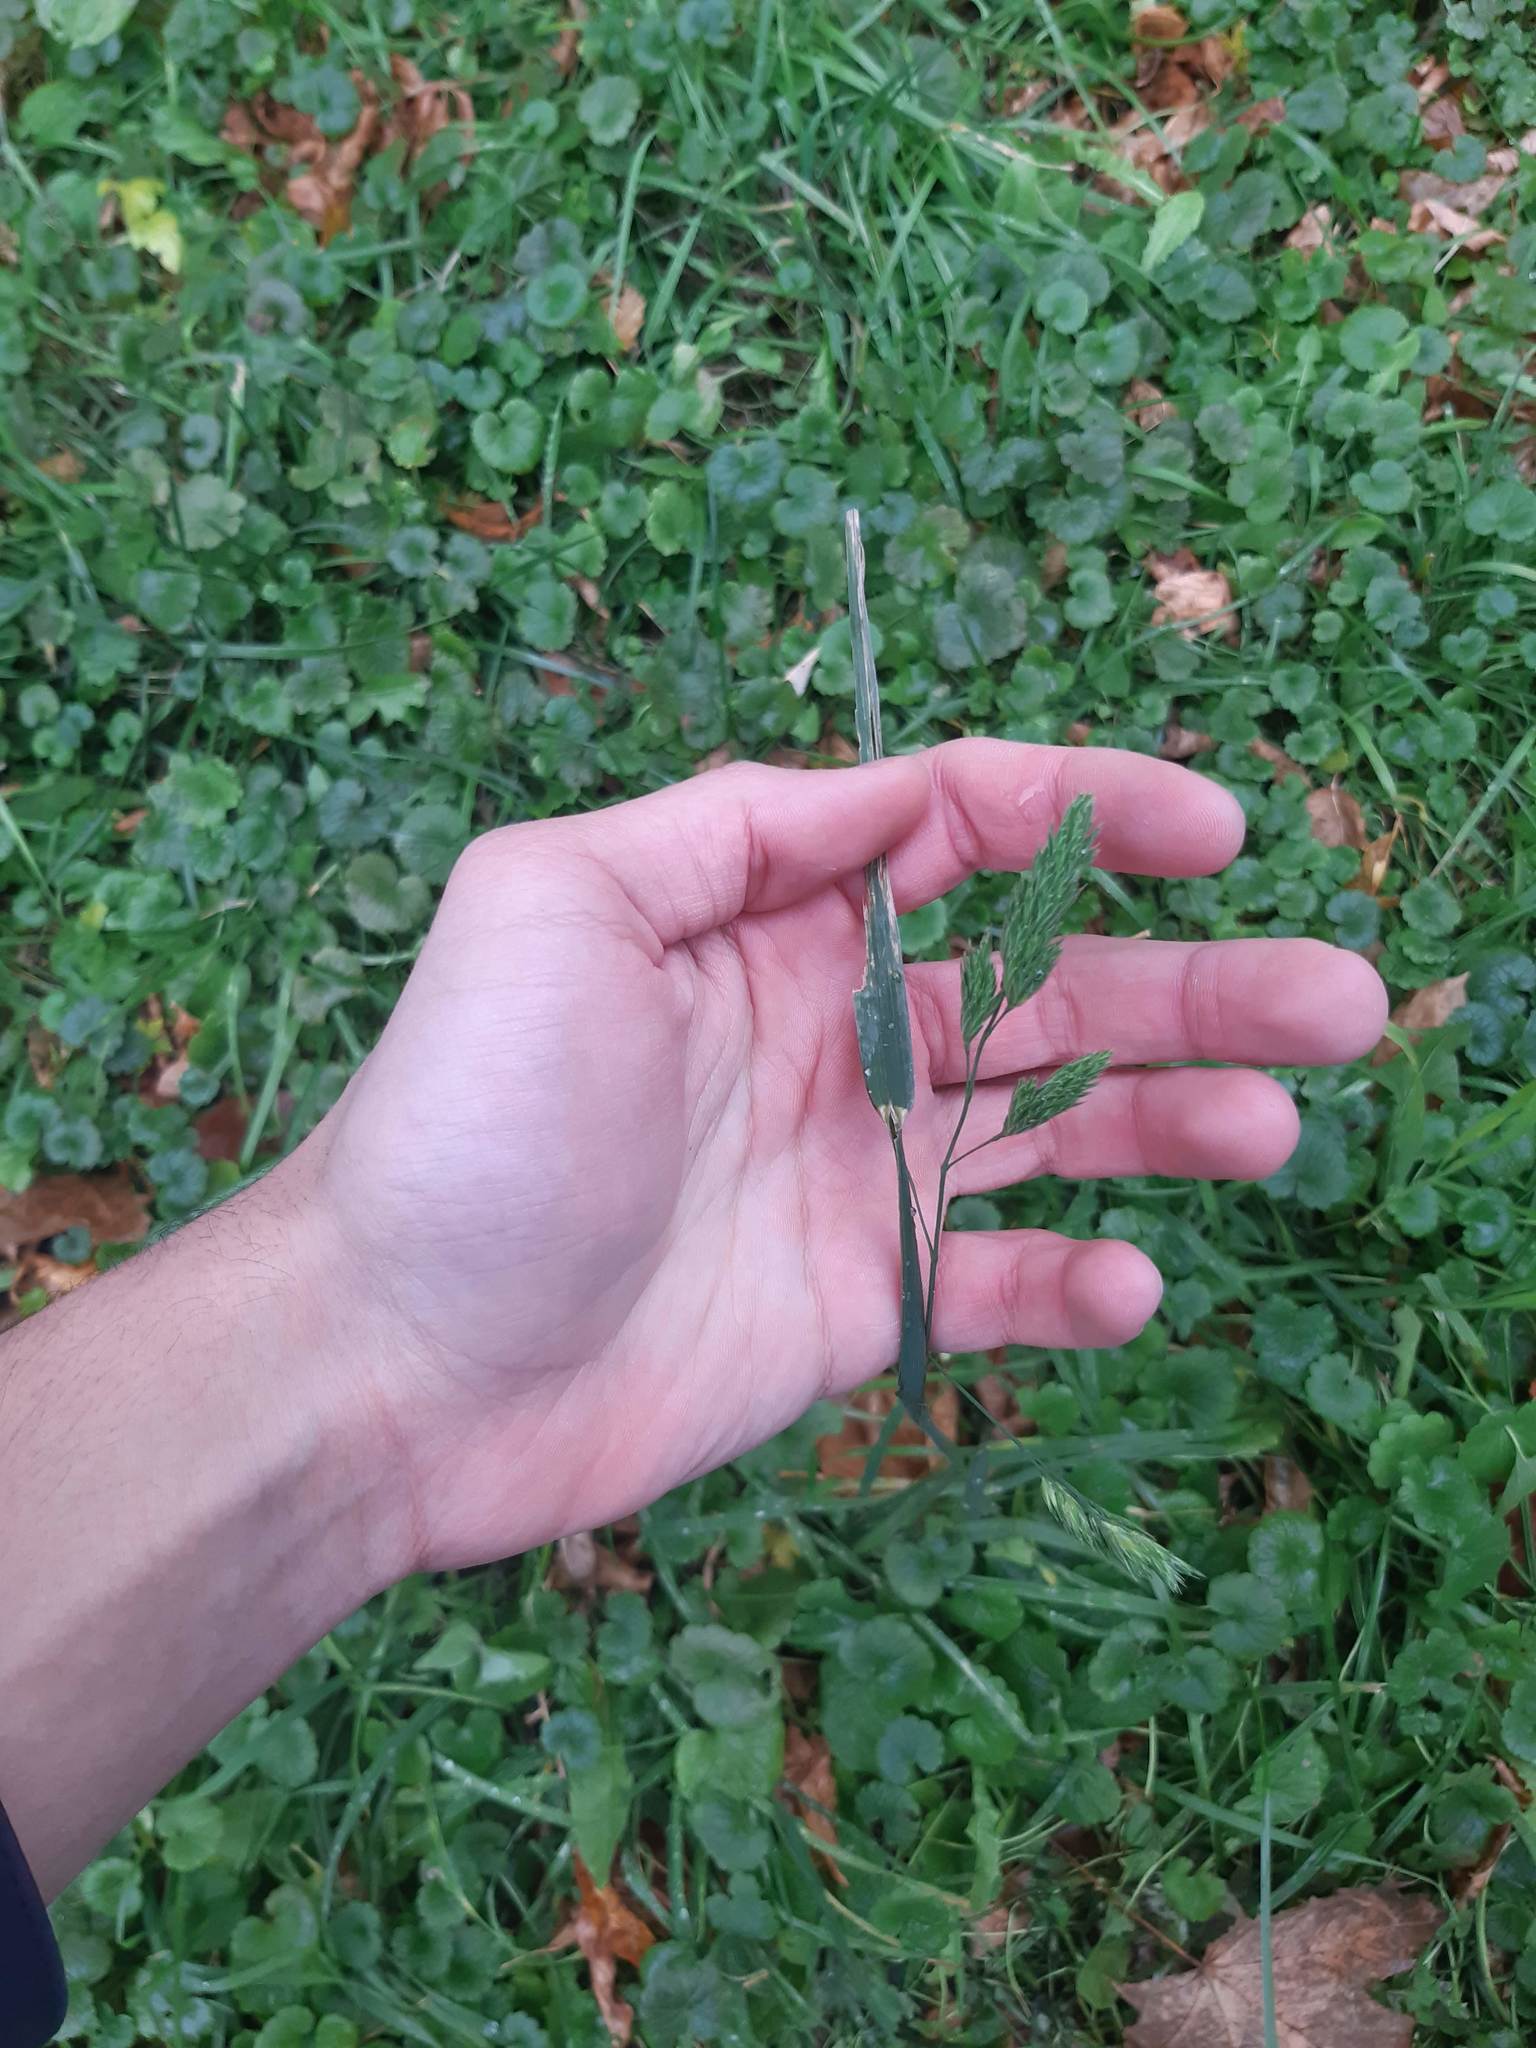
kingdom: Plantae
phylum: Tracheophyta
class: Liliopsida
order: Poales
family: Poaceae
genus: Dactylis
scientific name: Dactylis glomerata
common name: Orchardgrass
